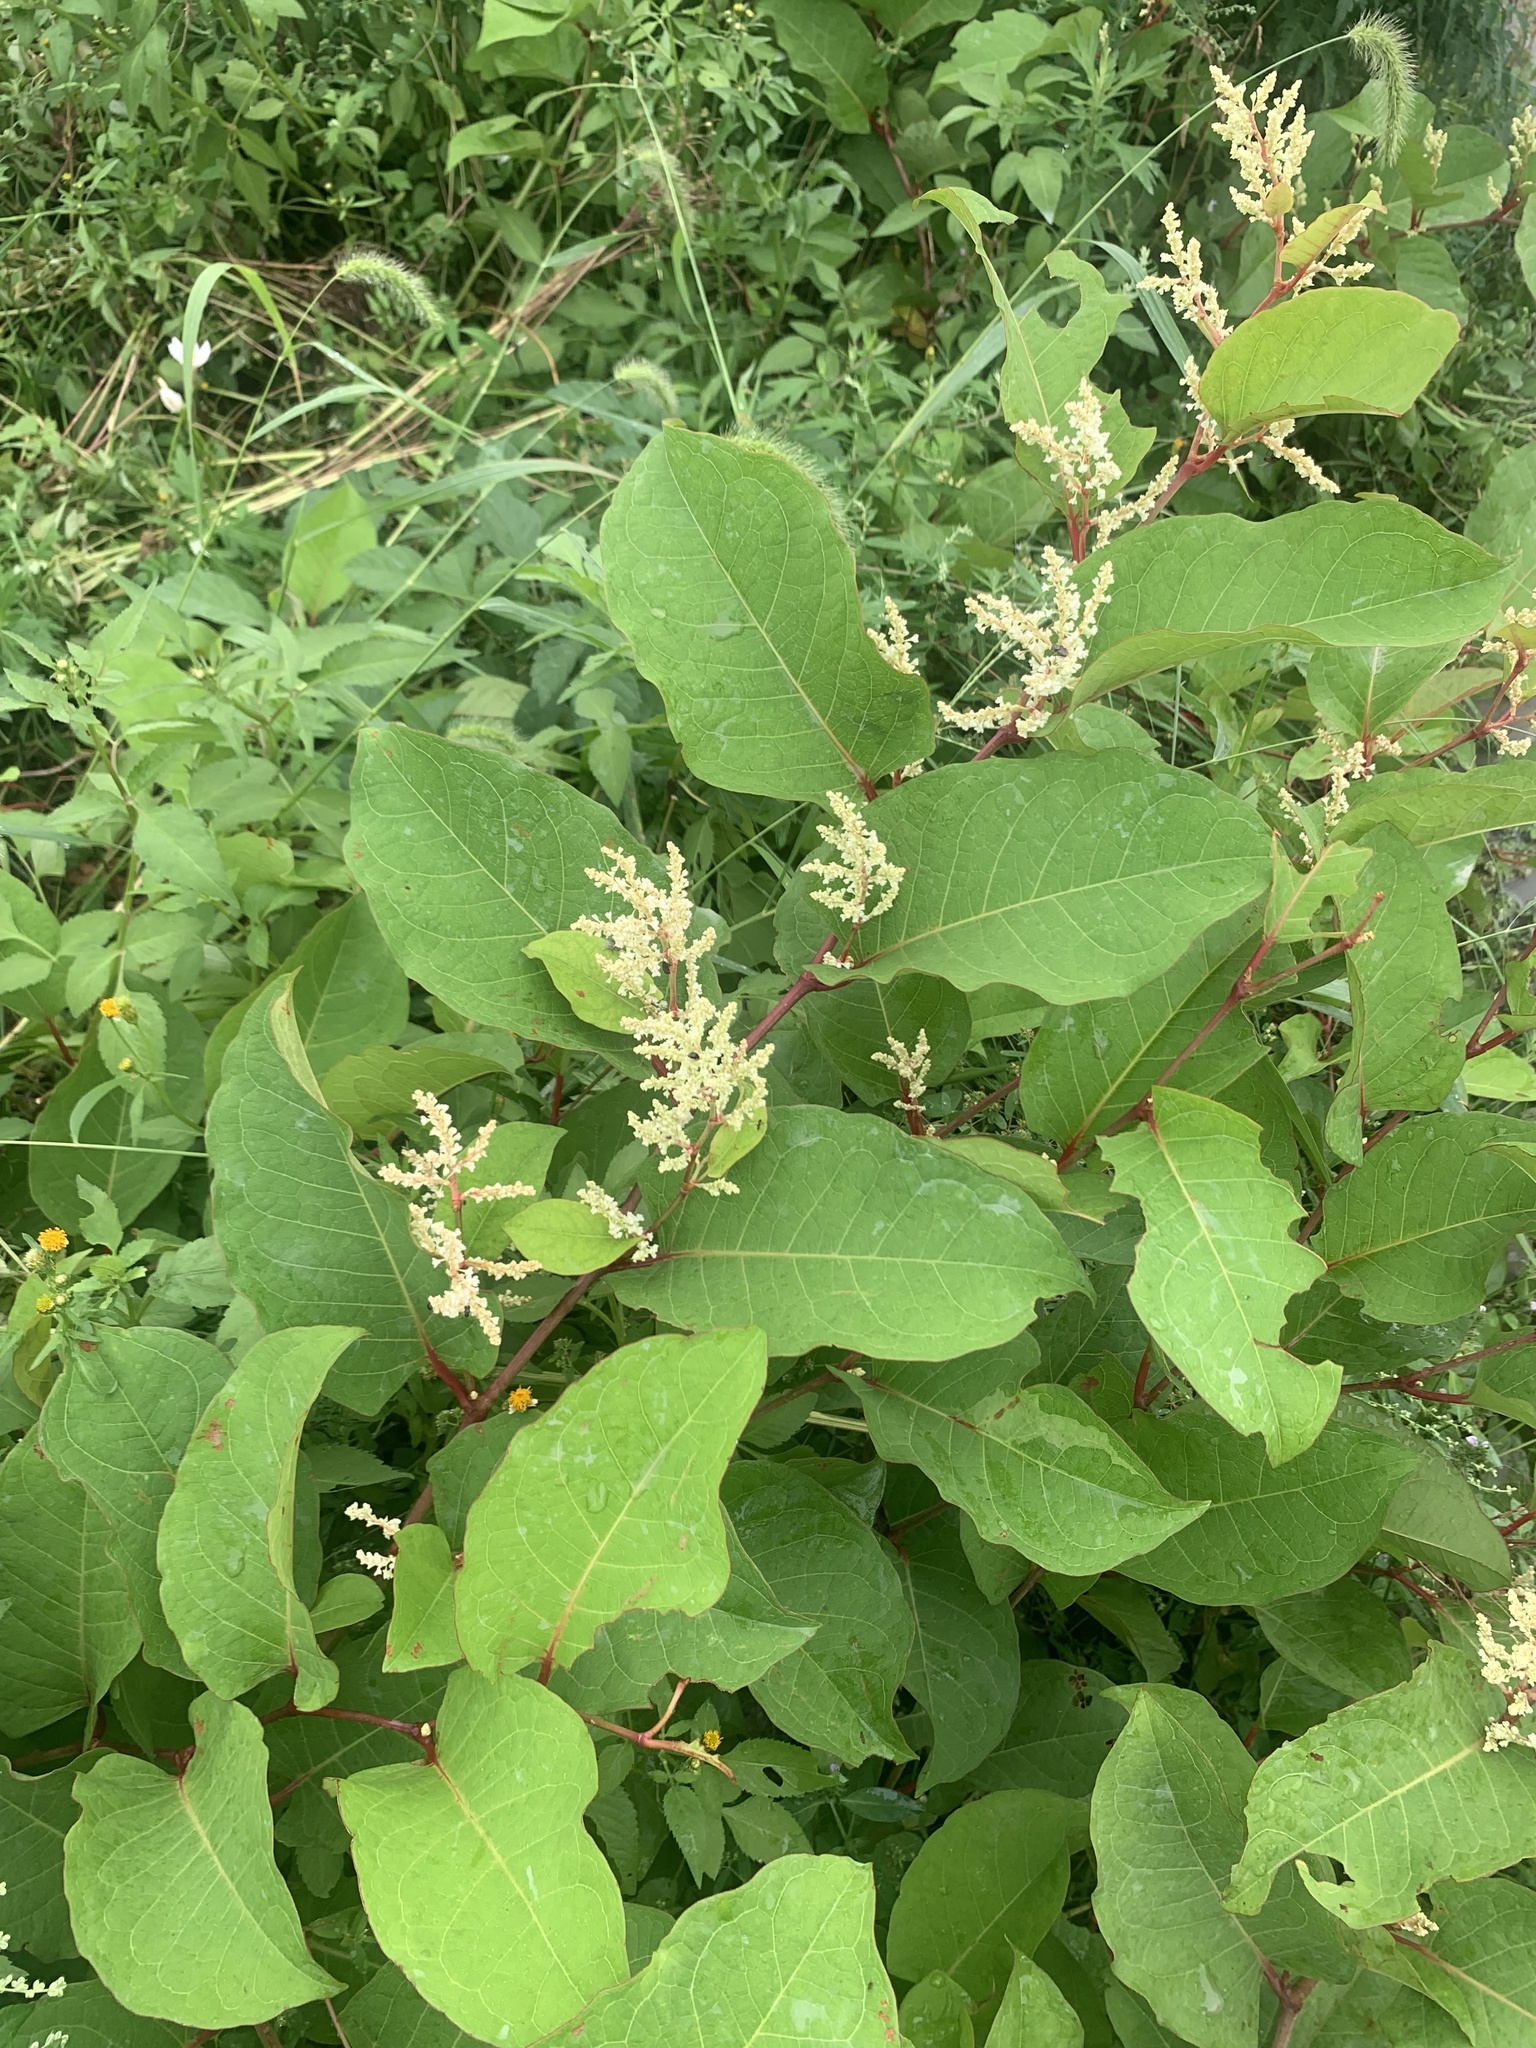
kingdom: Plantae
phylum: Tracheophyta
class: Magnoliopsida
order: Caryophyllales
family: Polygonaceae
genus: Reynoutria
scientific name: Reynoutria japonica
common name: Japanese knotweed
